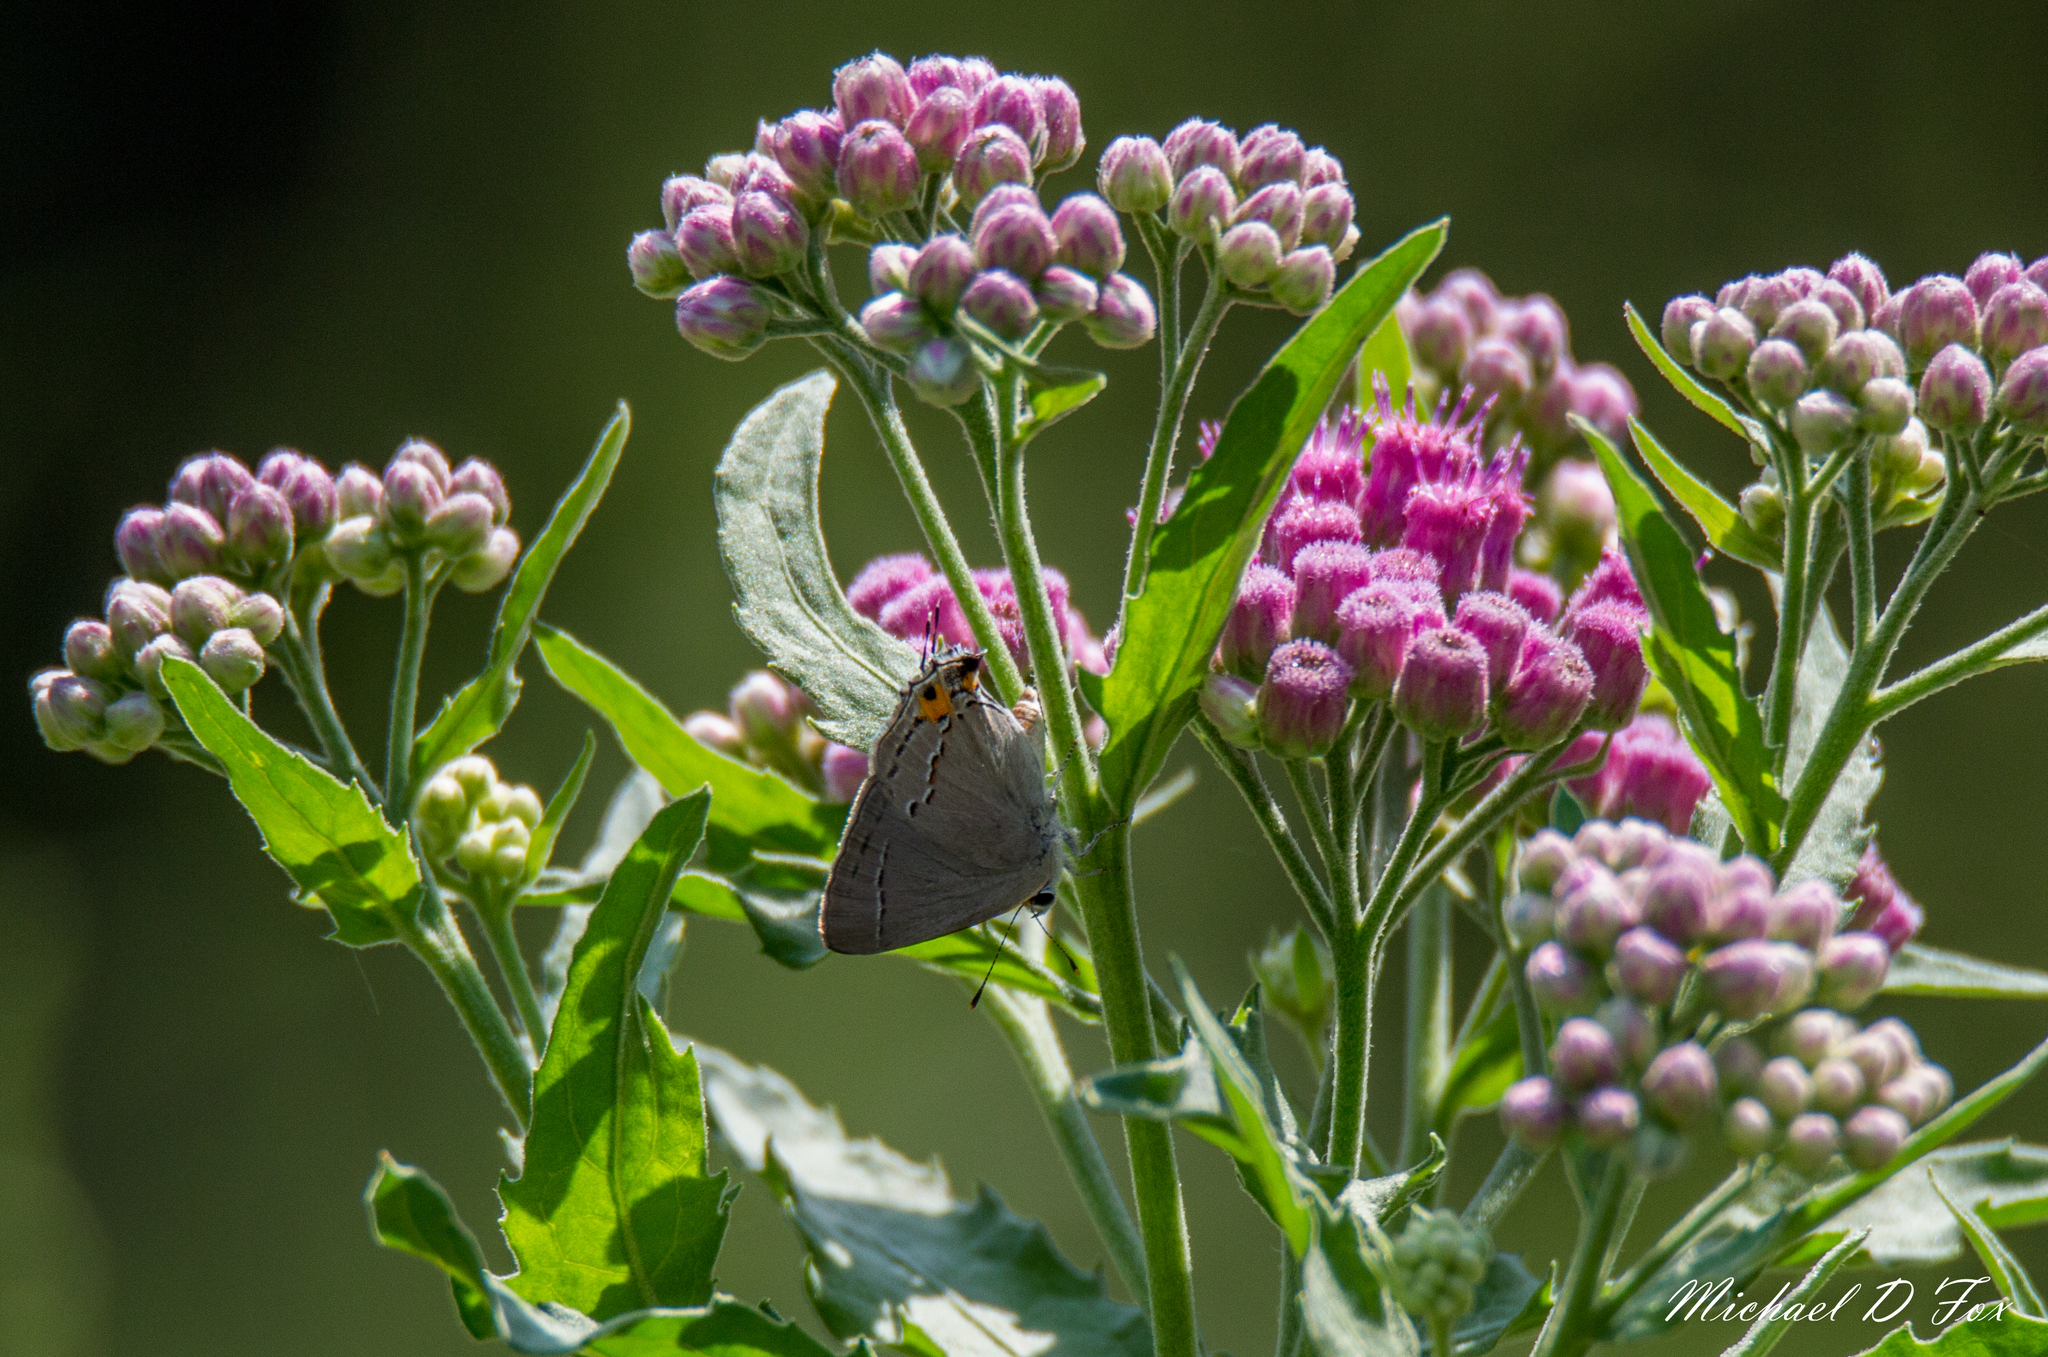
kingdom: Animalia
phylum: Arthropoda
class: Insecta
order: Lepidoptera
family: Lycaenidae
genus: Strymon
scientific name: Strymon melinus
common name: Gray hairstreak
